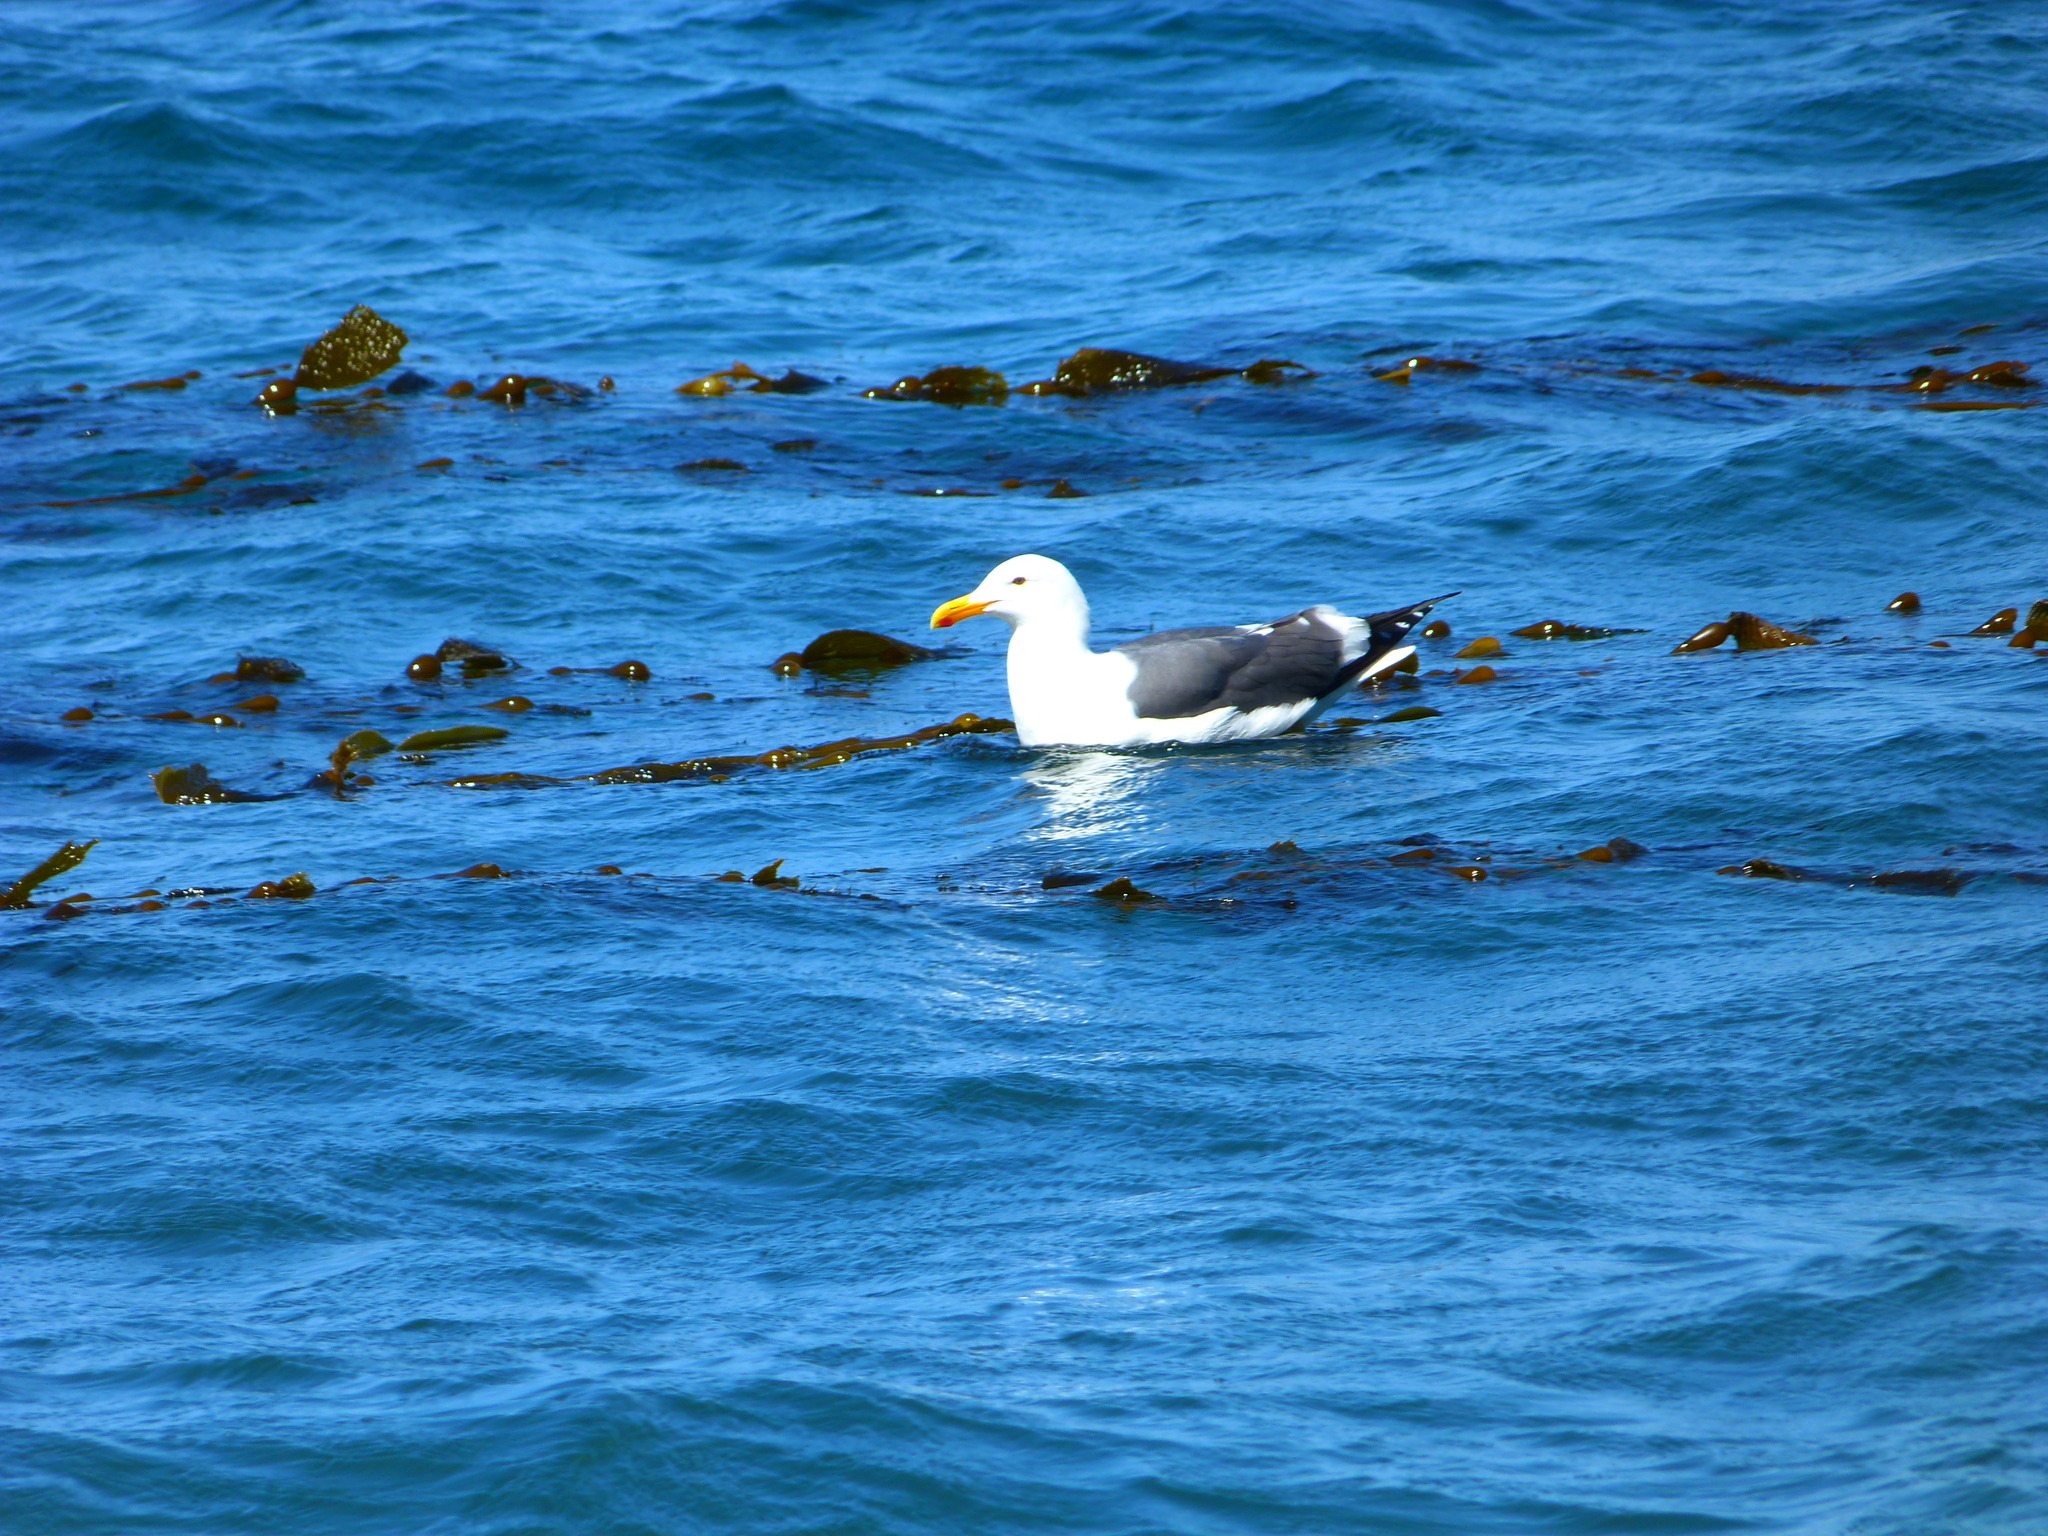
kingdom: Animalia
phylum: Chordata
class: Aves
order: Charadriiformes
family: Laridae
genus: Larus
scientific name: Larus occidentalis
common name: Western gull
